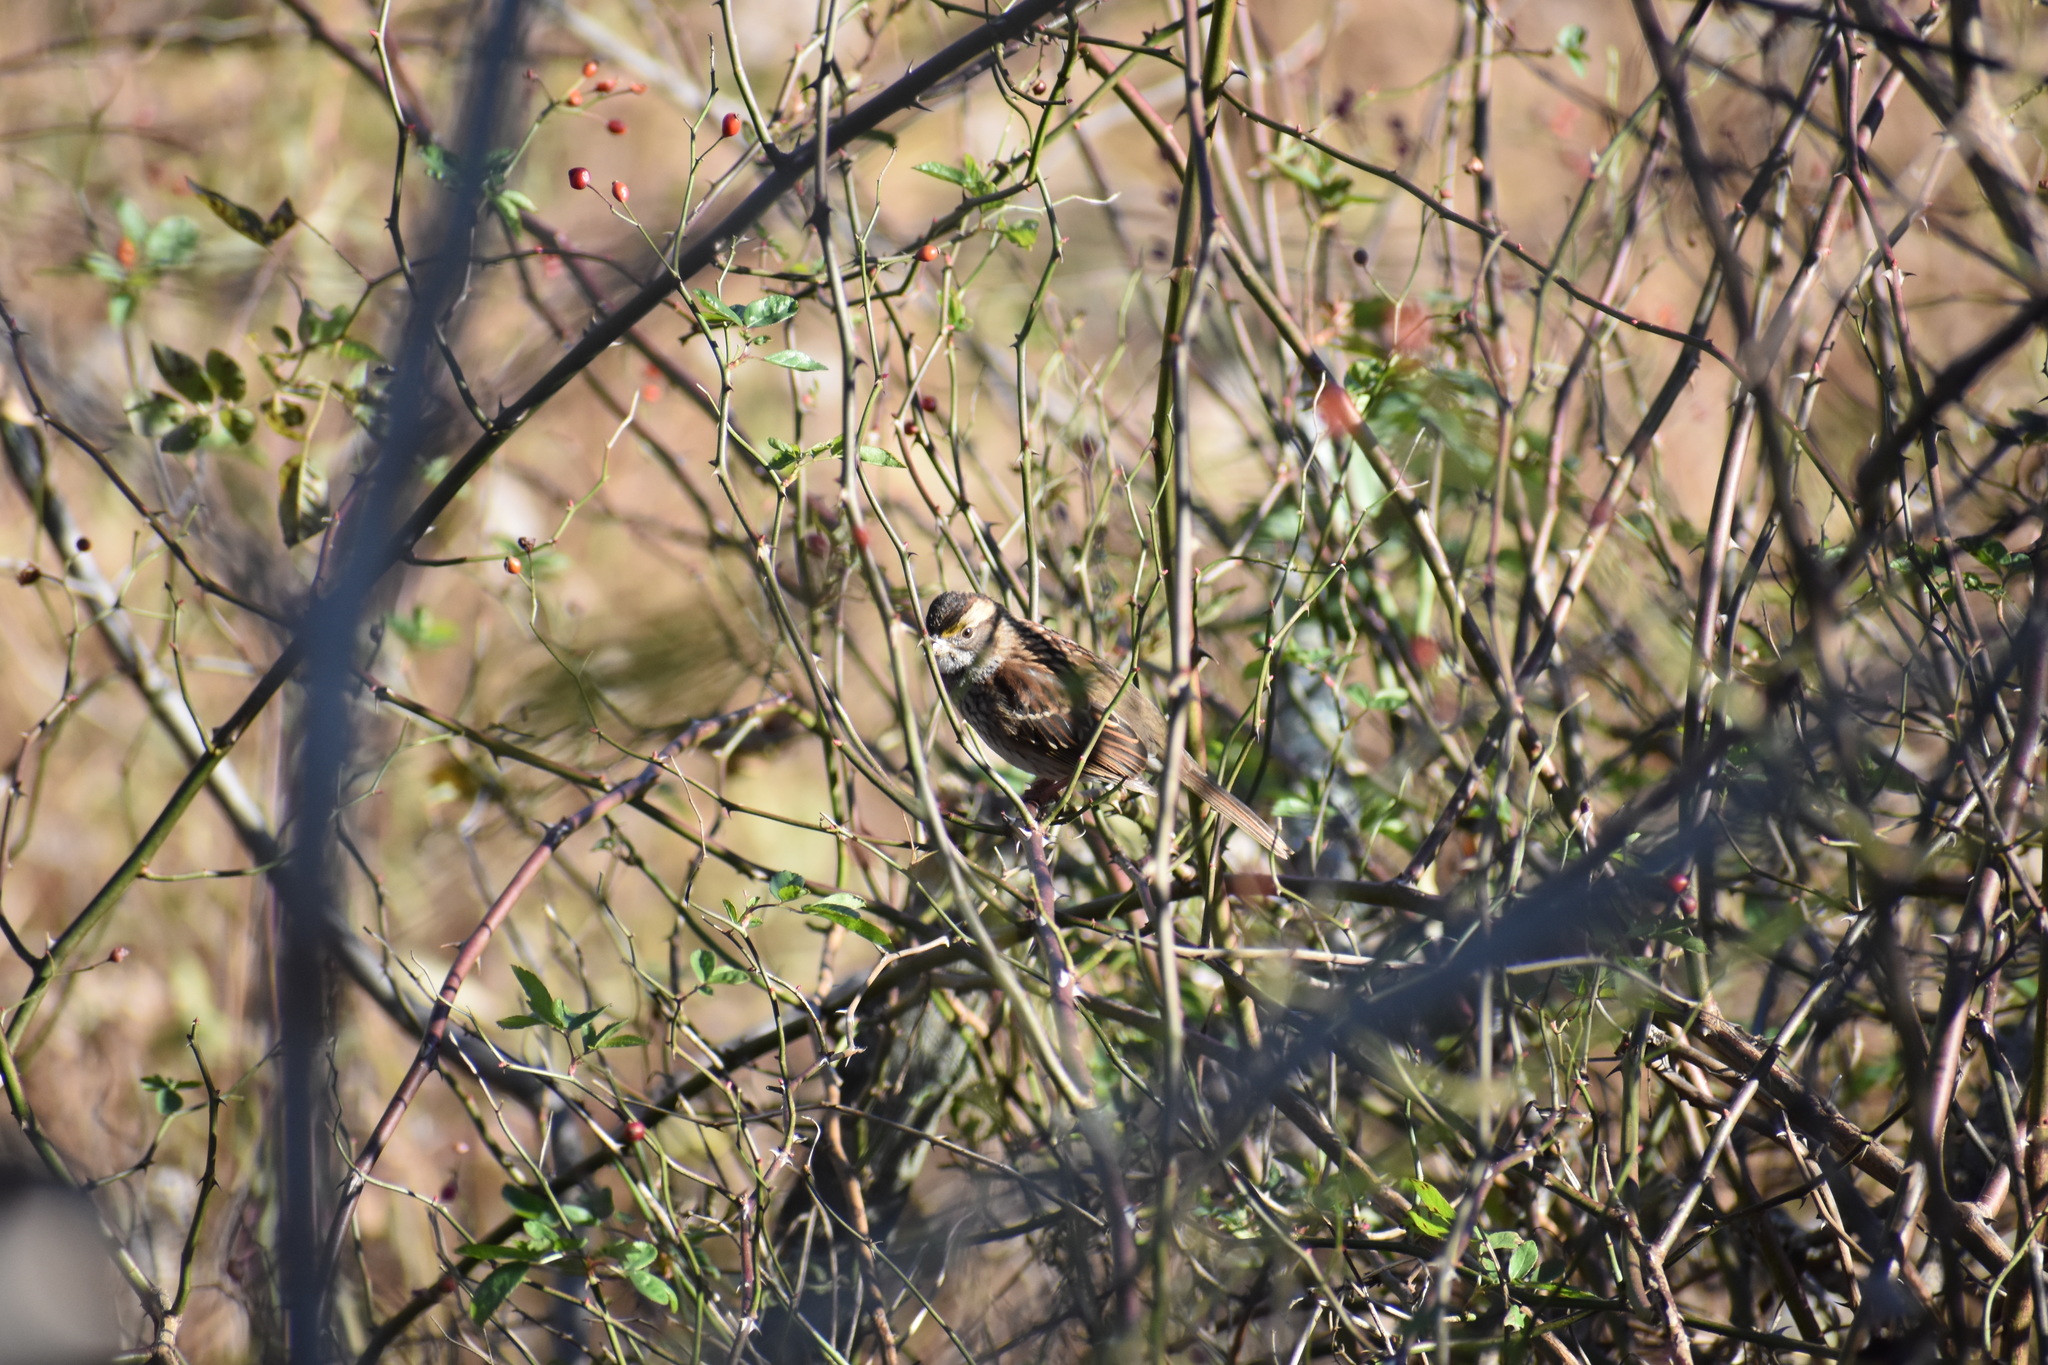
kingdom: Animalia
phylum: Chordata
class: Aves
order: Passeriformes
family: Passerellidae
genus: Zonotrichia
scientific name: Zonotrichia albicollis
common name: White-throated sparrow
